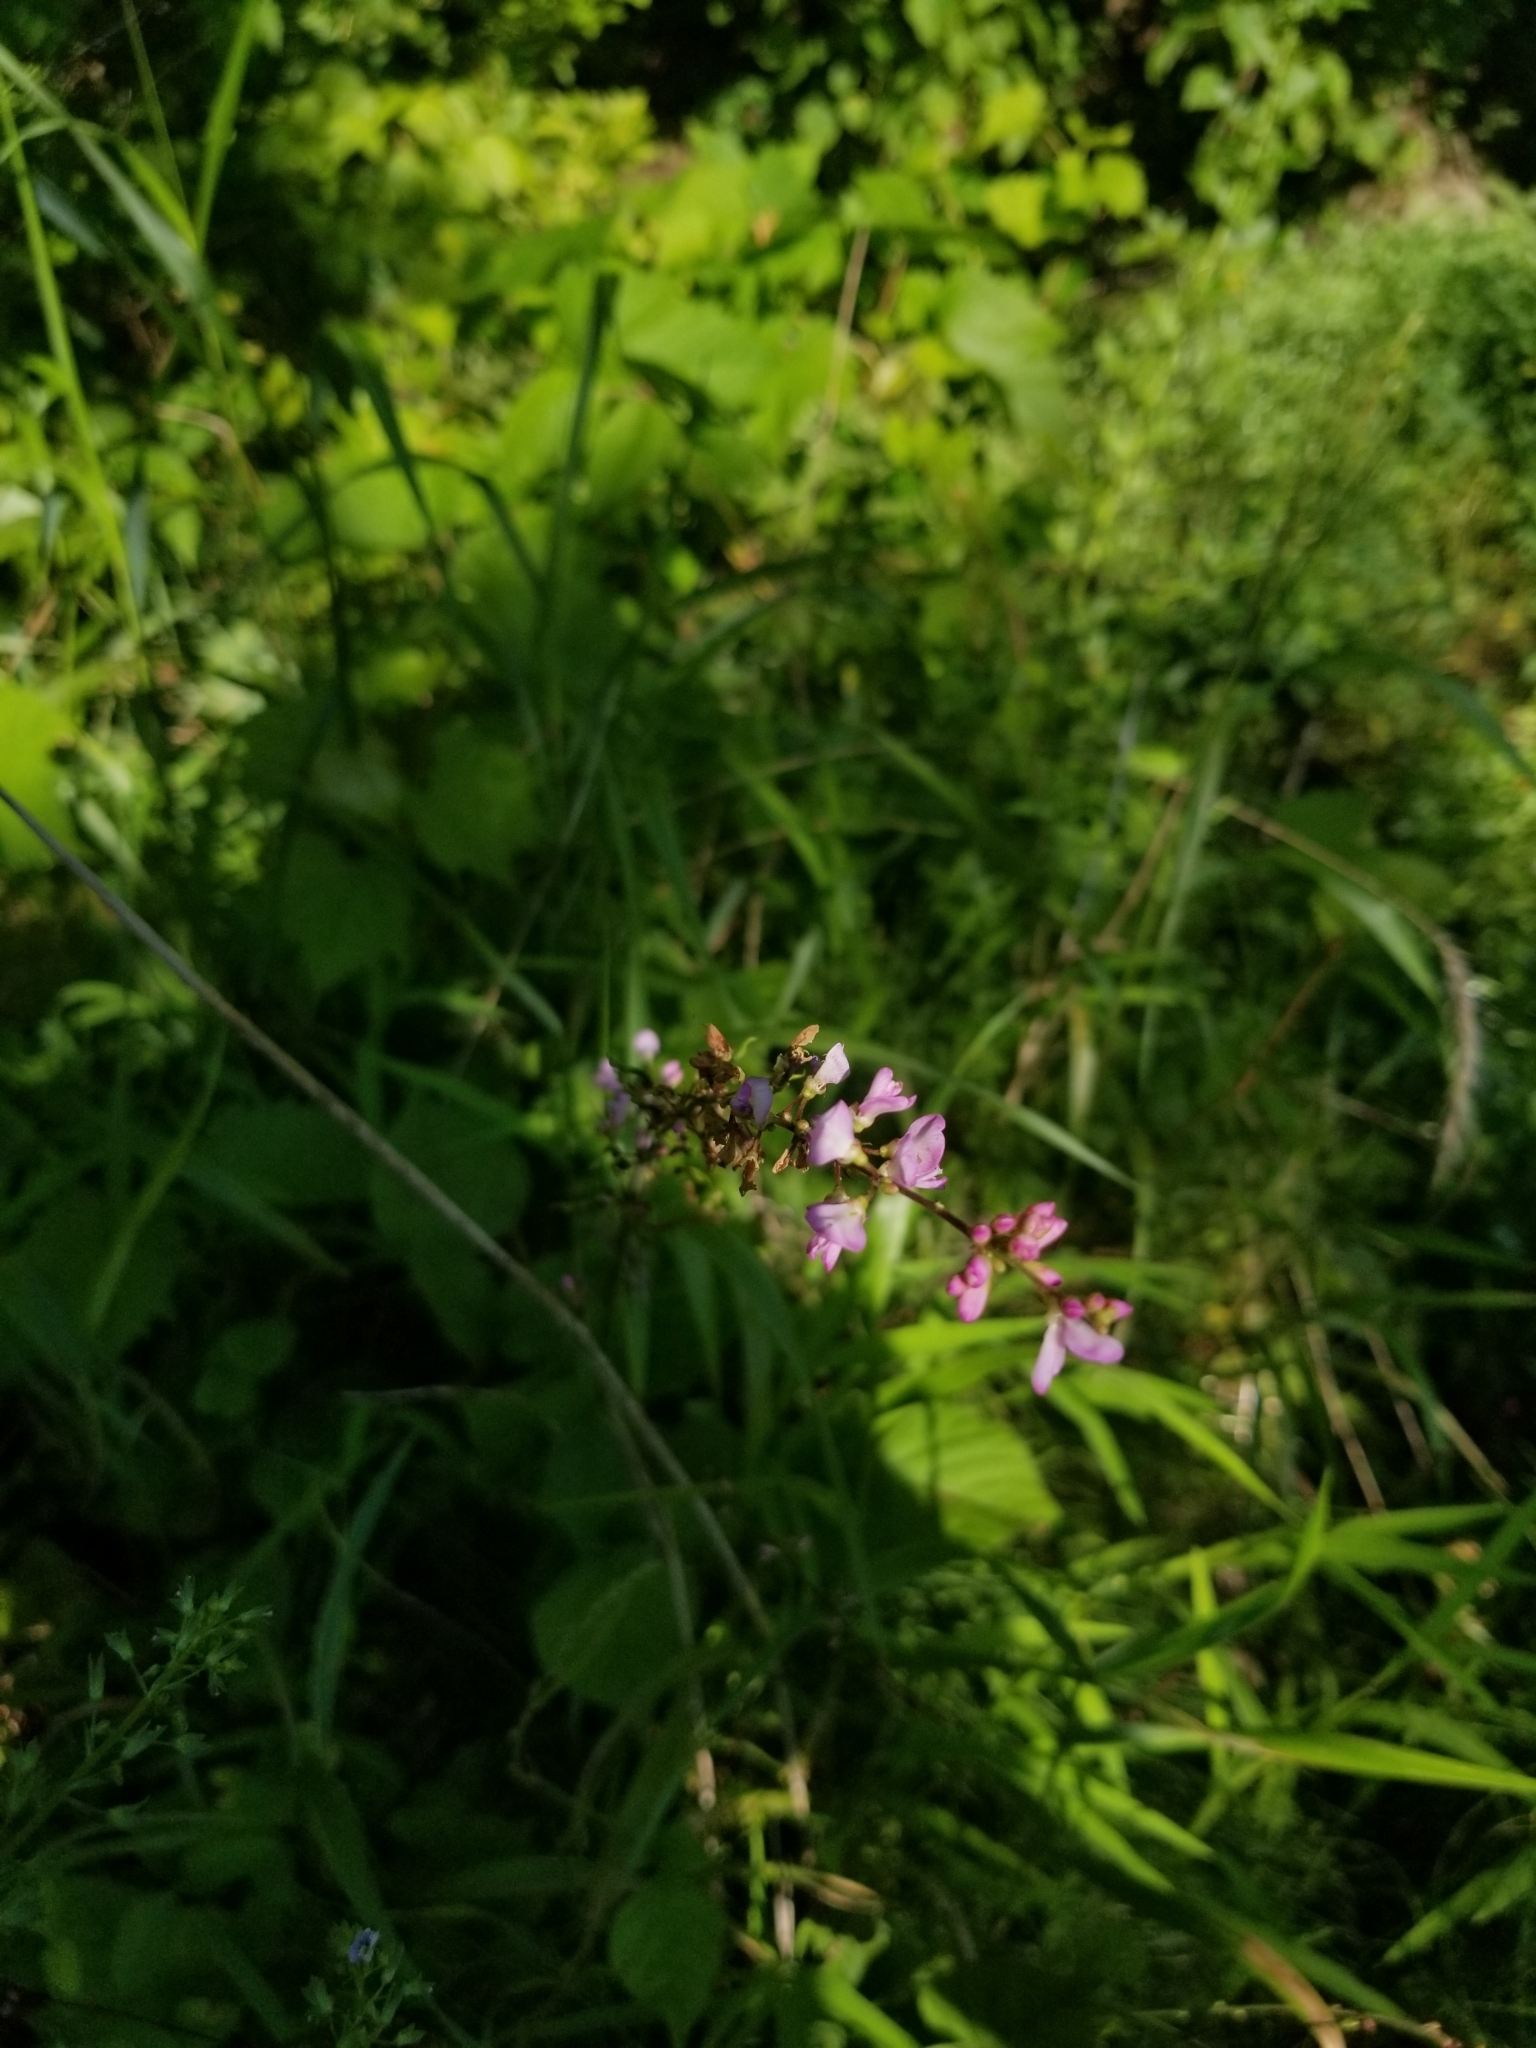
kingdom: Plantae
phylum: Tracheophyta
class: Magnoliopsida
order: Fabales
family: Fabaceae
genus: Hylodesmum
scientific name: Hylodesmum glutinosum
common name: Clustered-leaved tick-trefoil
